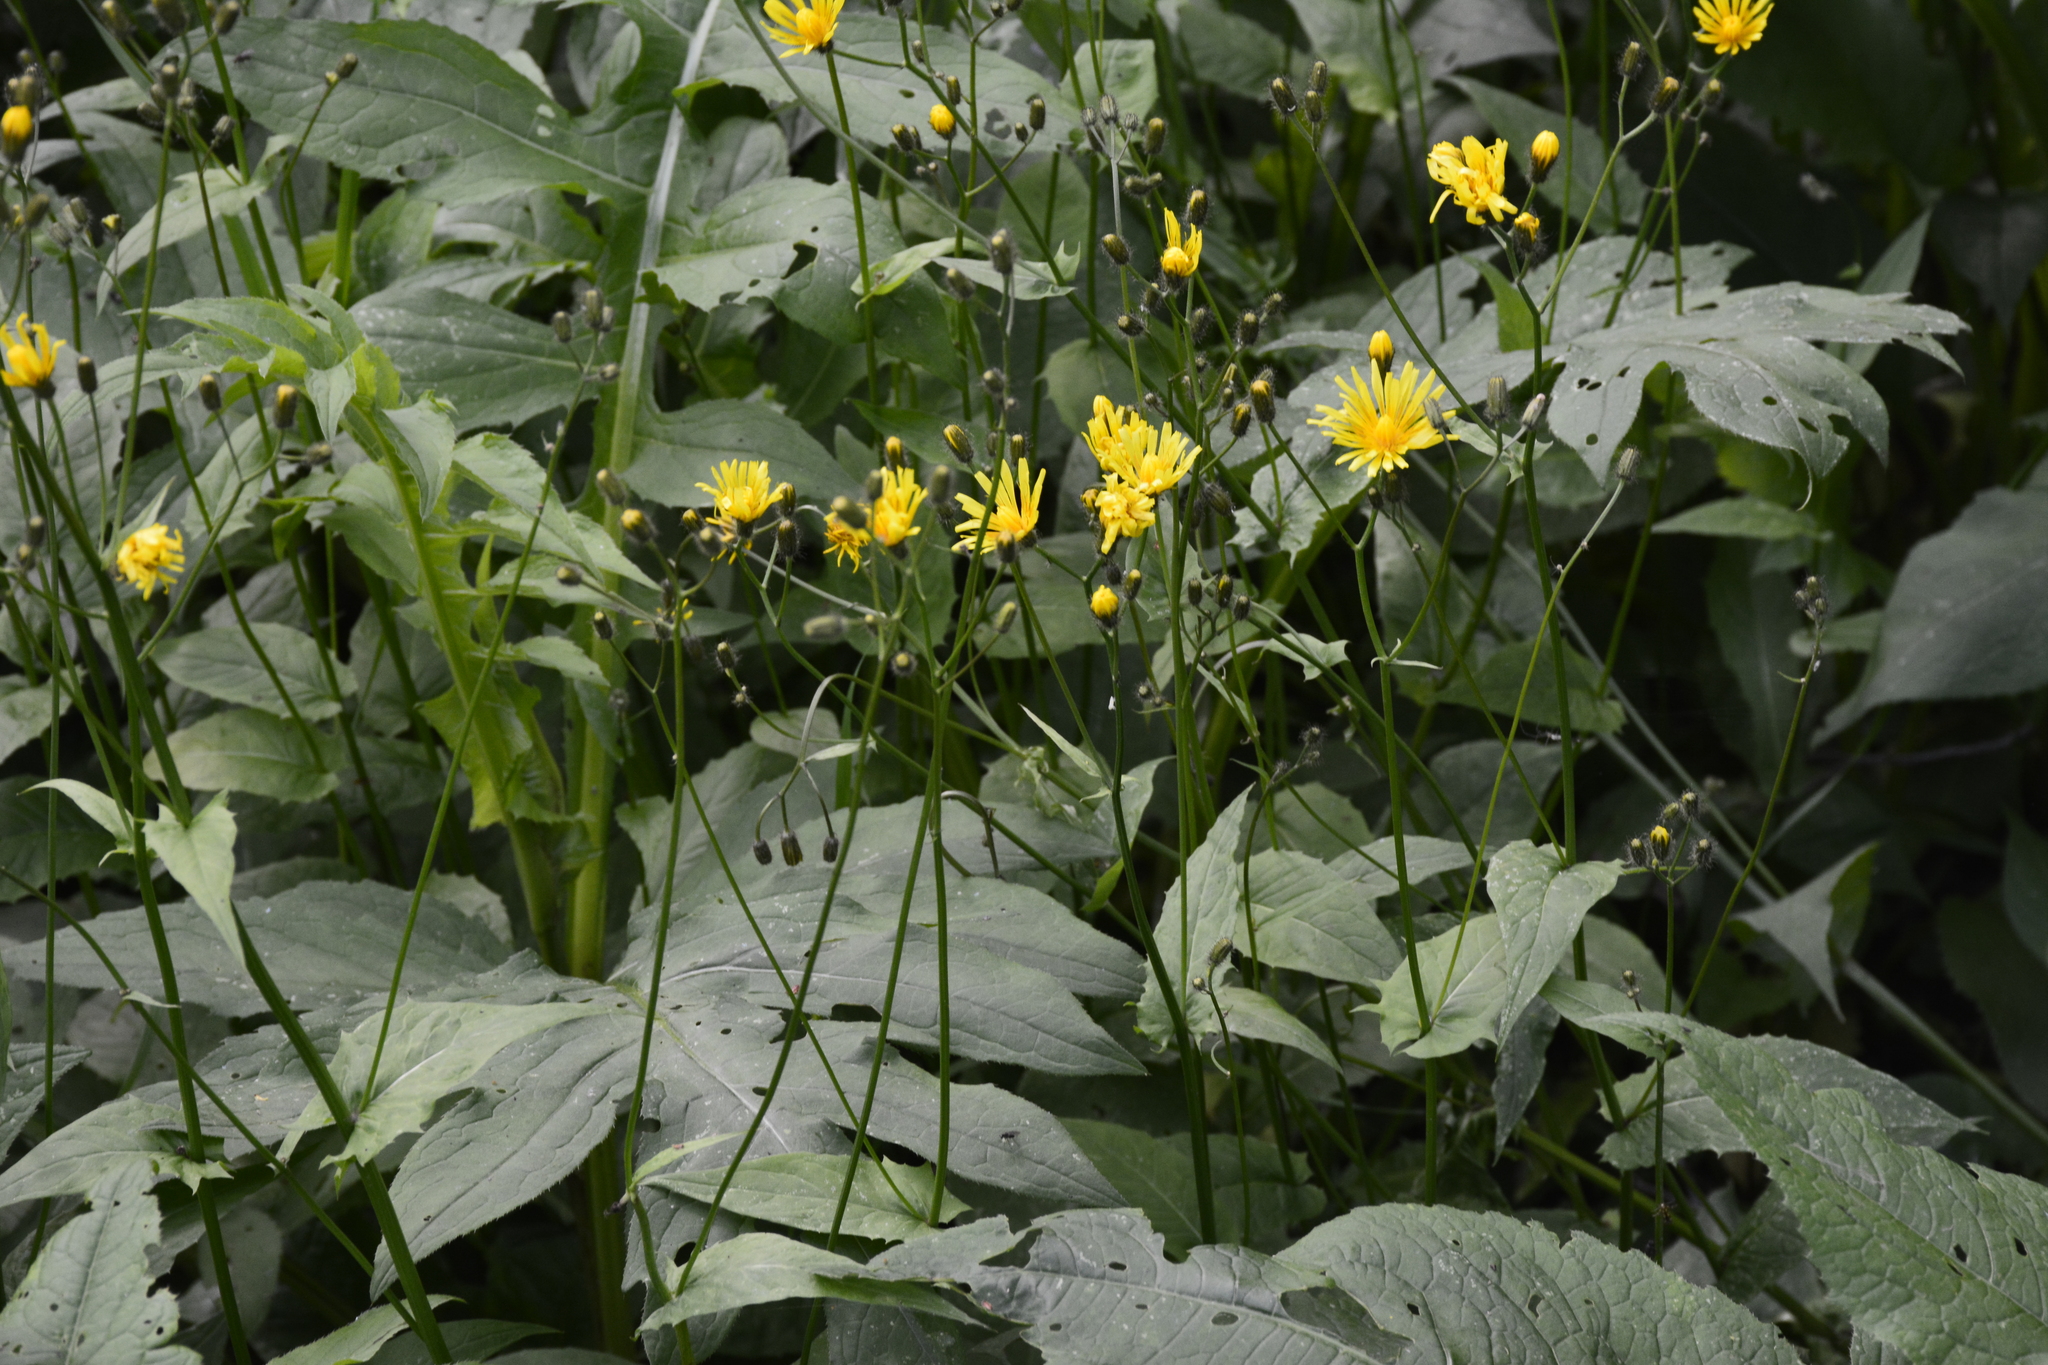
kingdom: Plantae
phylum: Tracheophyta
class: Magnoliopsida
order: Asterales
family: Asteraceae
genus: Crepis
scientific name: Crepis paludosa
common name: Marsh hawk's-beard
